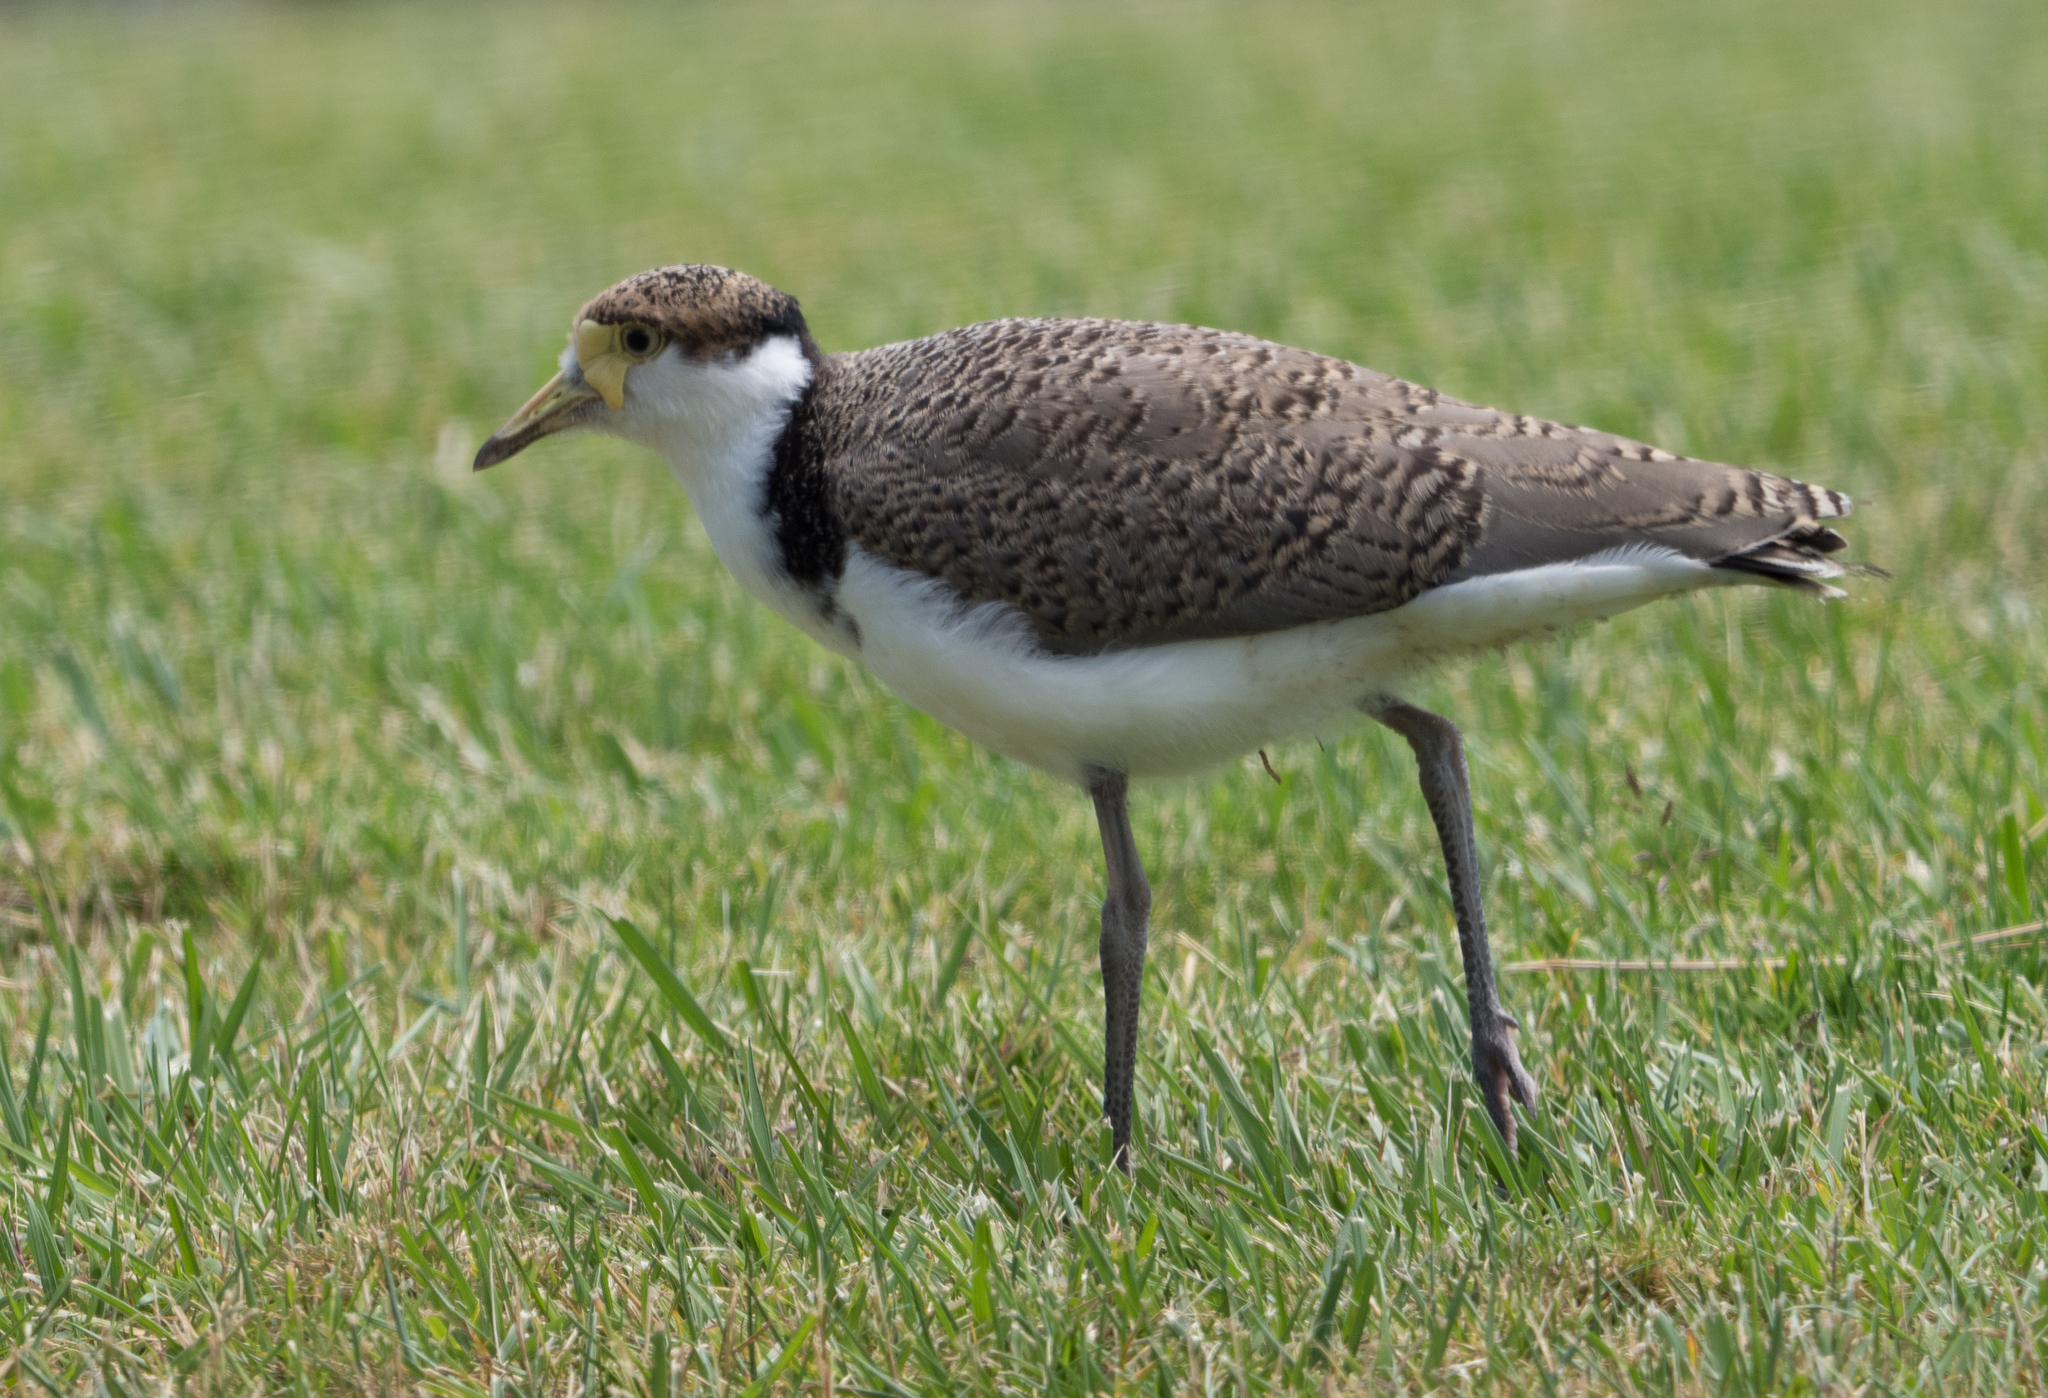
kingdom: Animalia
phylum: Chordata
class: Aves
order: Charadriiformes
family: Charadriidae
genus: Vanellus
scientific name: Vanellus miles
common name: Masked lapwing
